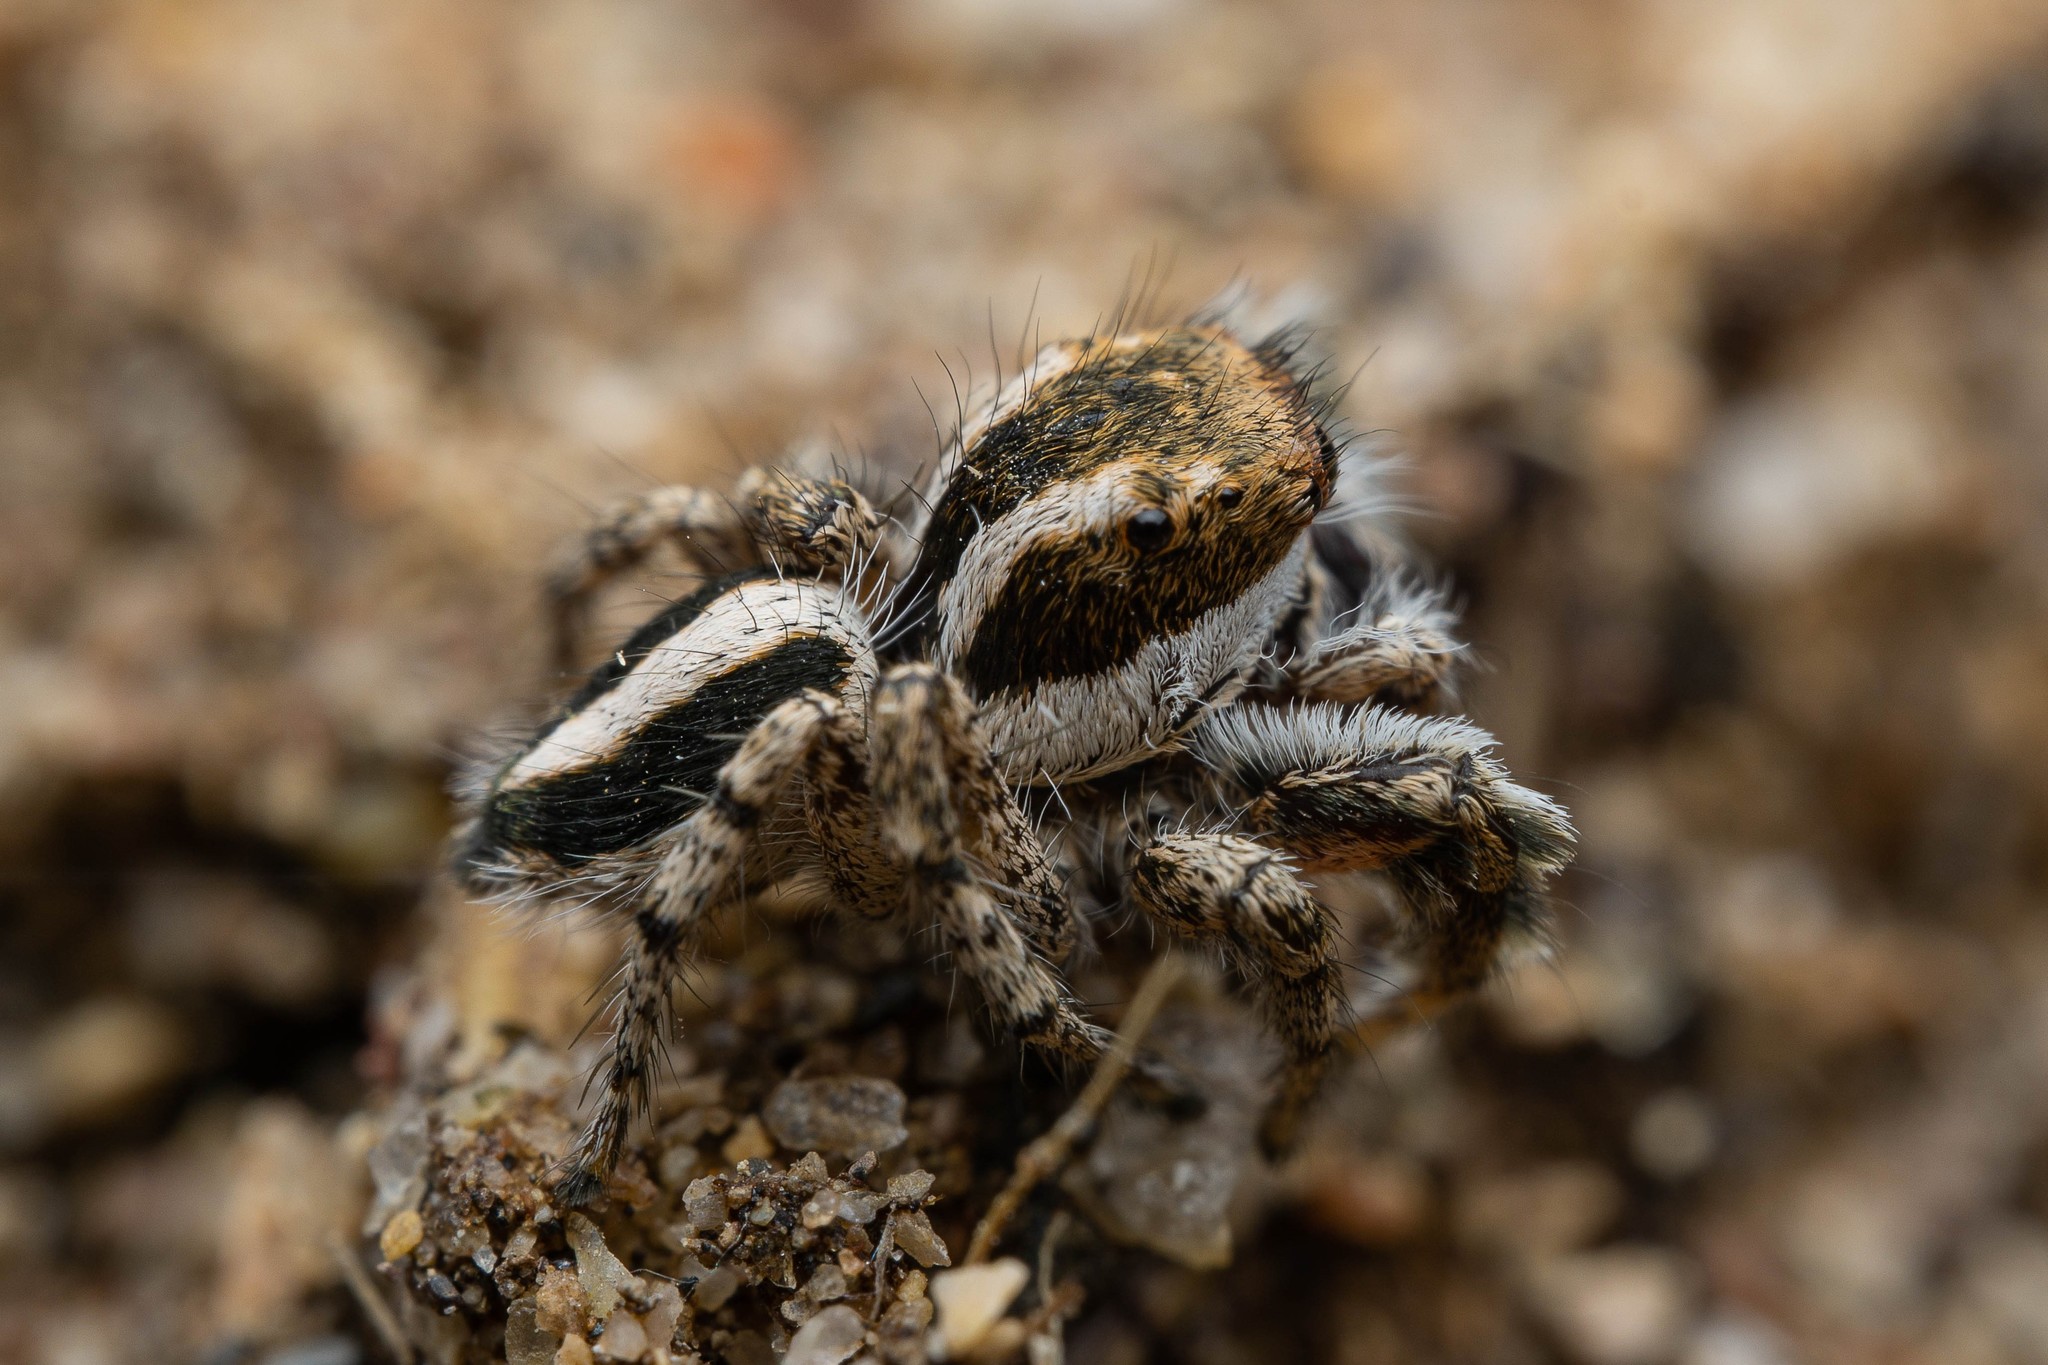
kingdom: Animalia
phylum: Arthropoda
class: Arachnida
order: Araneae
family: Salticidae
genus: Habronattus
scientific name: Habronattus conjunctus
